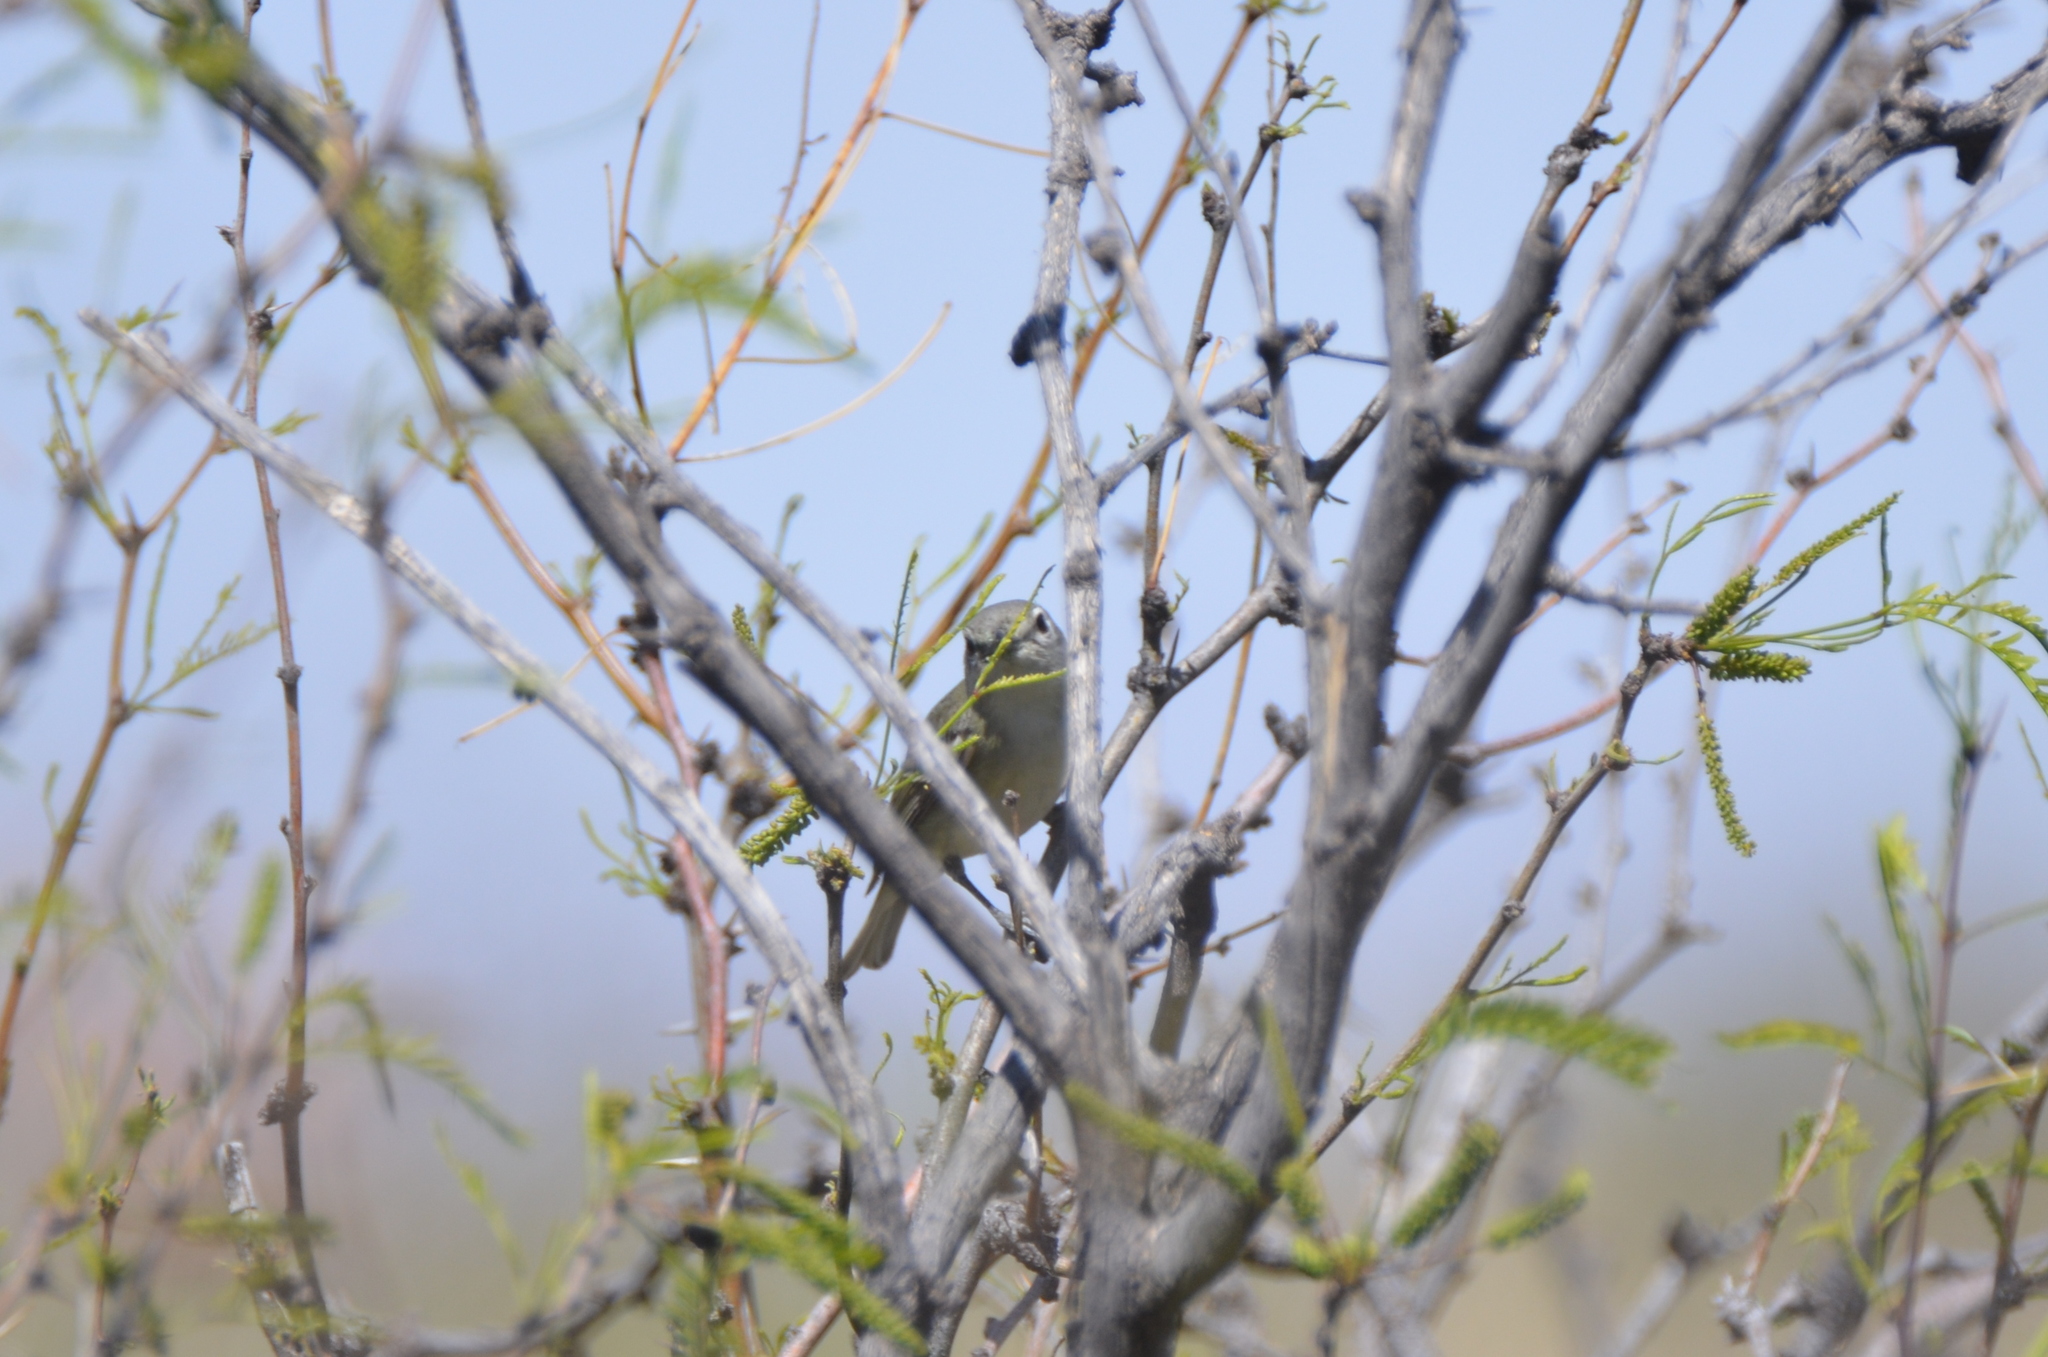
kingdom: Animalia
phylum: Chordata
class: Aves
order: Passeriformes
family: Vireonidae
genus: Vireo
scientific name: Vireo cassinii
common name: Cassin's vireo
